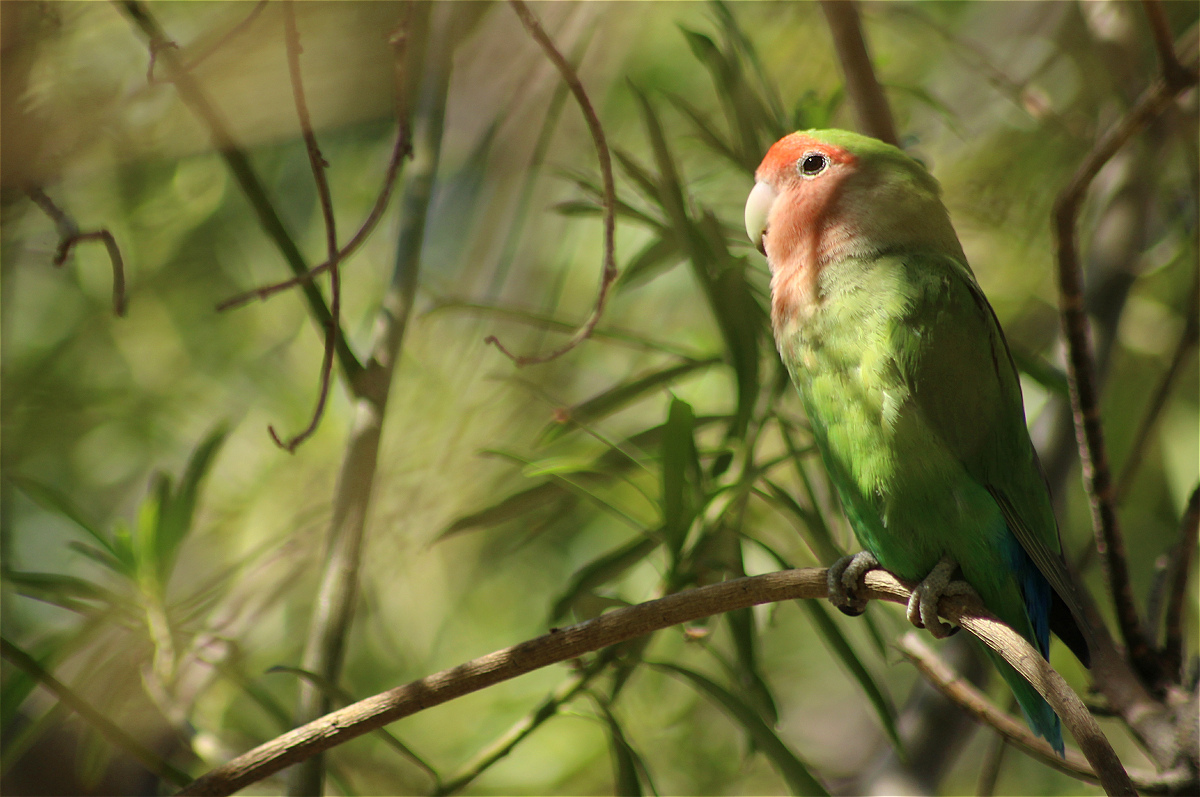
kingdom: Animalia
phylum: Chordata
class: Aves
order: Psittaciformes
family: Psittacidae
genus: Agapornis
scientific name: Agapornis roseicollis
